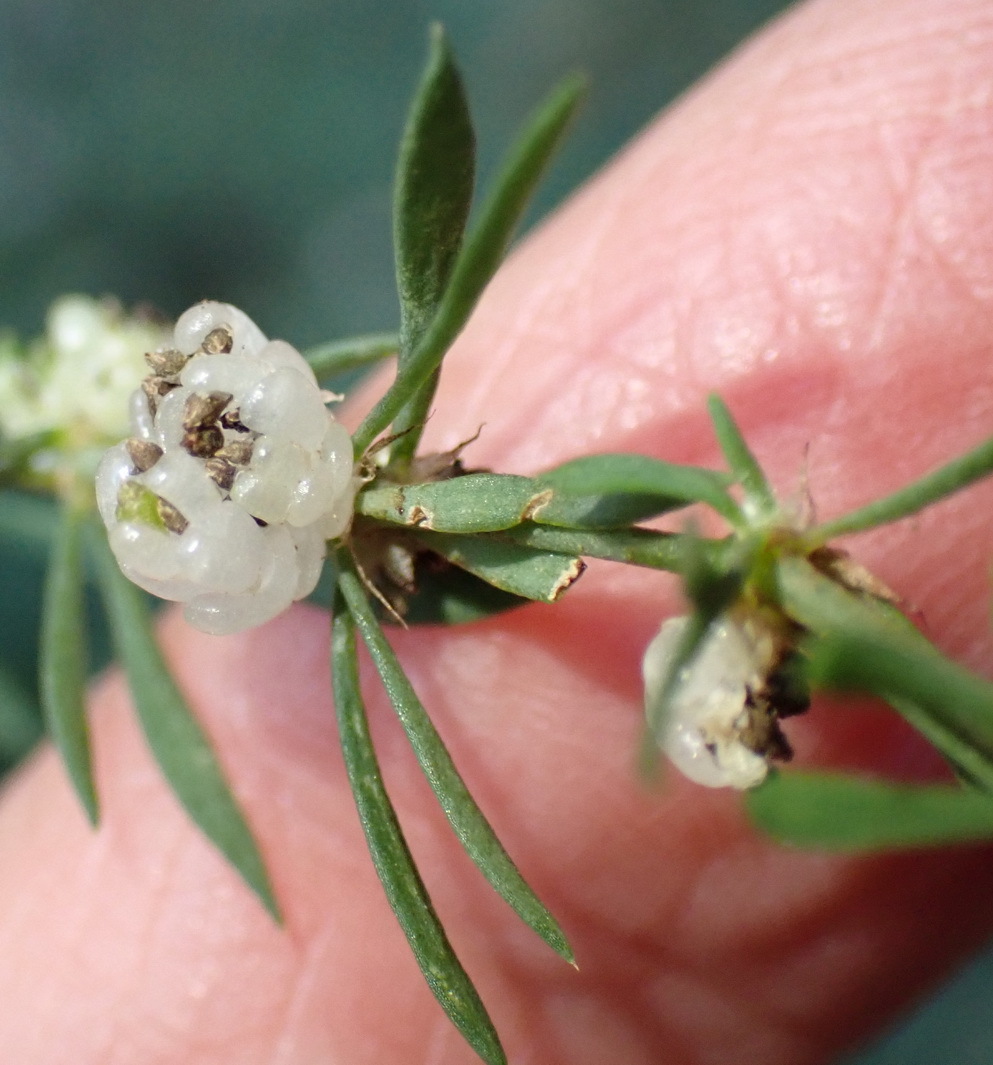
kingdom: Plantae
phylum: Tracheophyta
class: Magnoliopsida
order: Caryophyllales
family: Caryophyllaceae
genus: Pollichia
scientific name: Pollichia campestris
